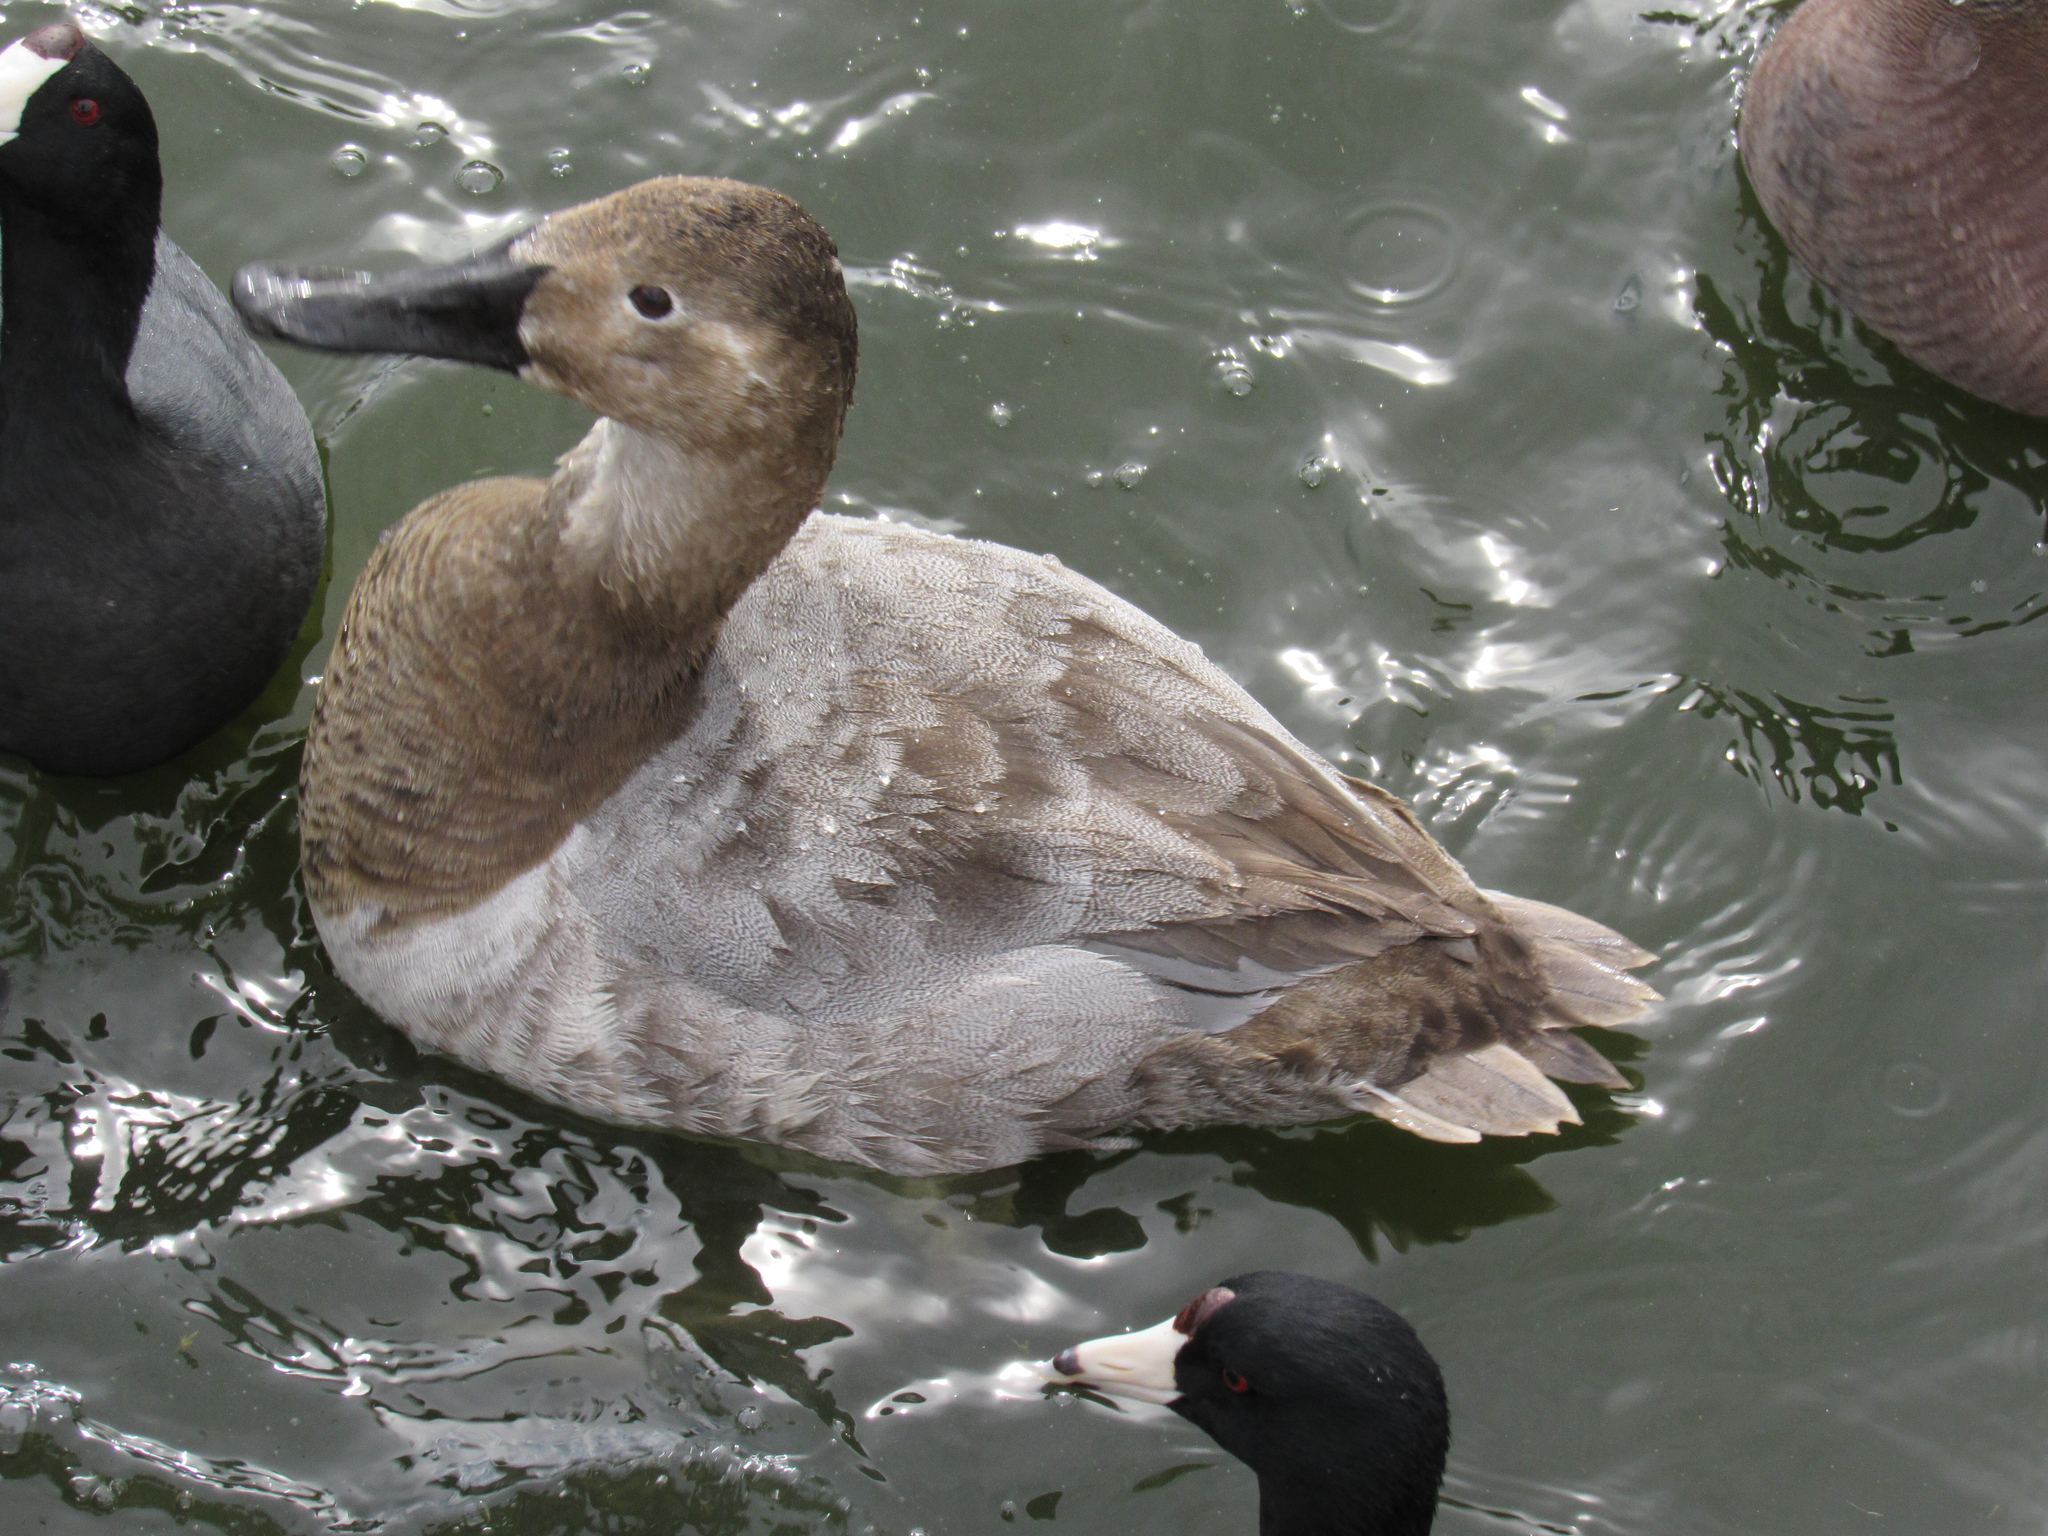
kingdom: Animalia
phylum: Chordata
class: Aves
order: Anseriformes
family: Anatidae
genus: Aythya
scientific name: Aythya valisineria
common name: Canvasback
